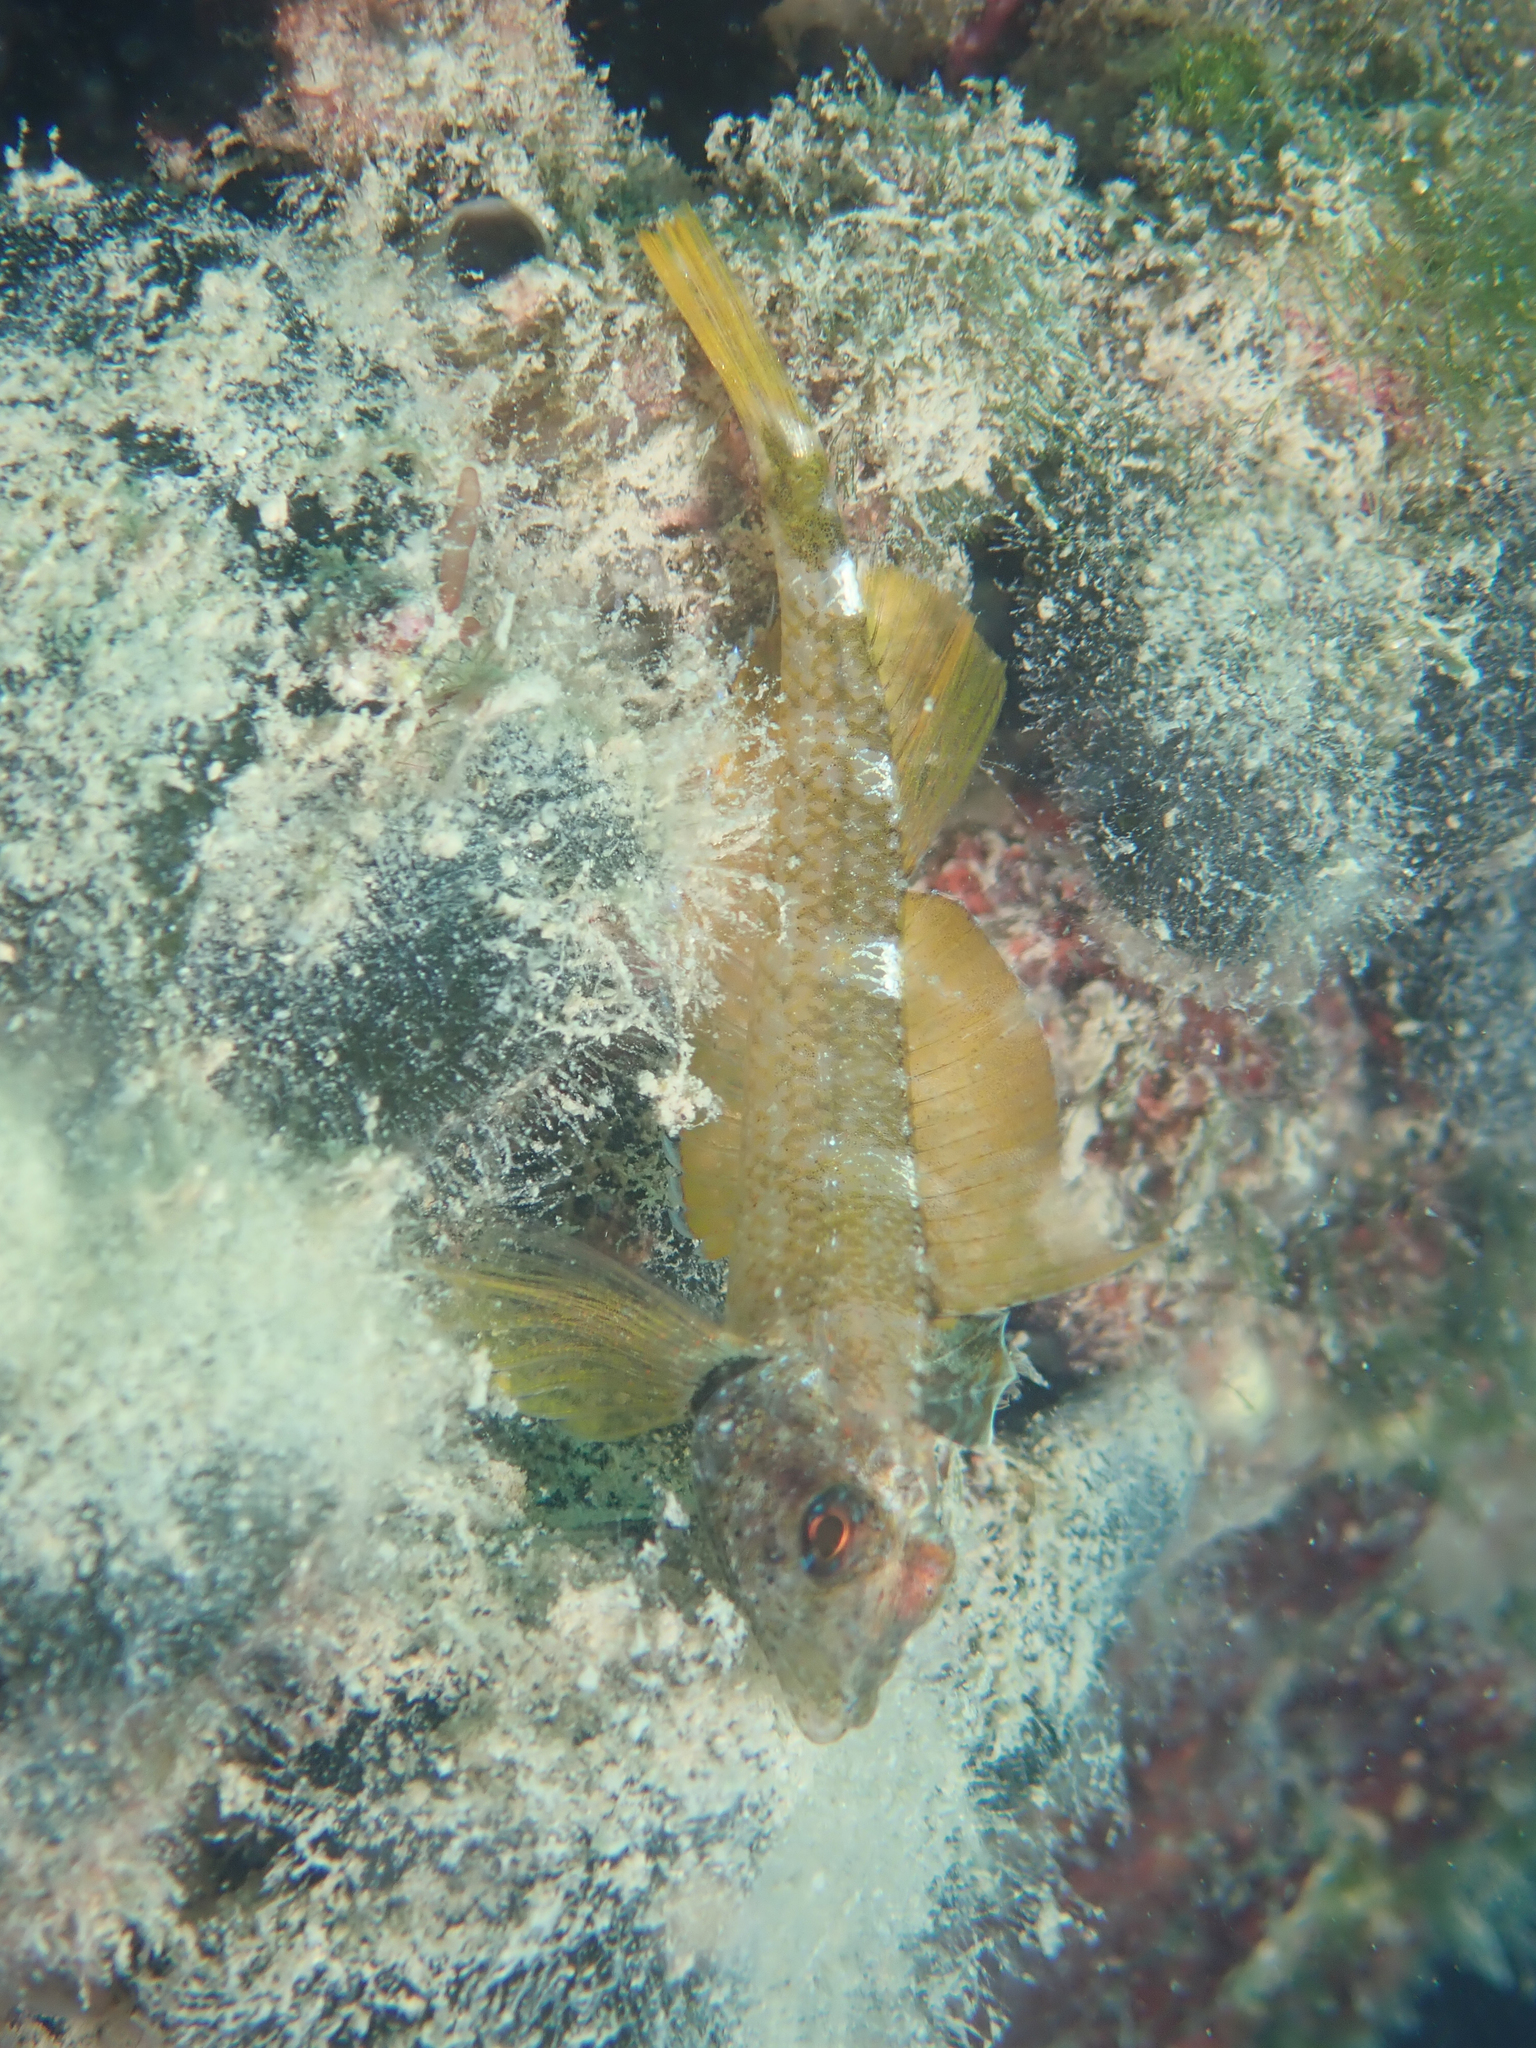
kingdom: Animalia
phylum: Chordata
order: Perciformes
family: Tripterygiidae
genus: Tripterygion
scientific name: Tripterygion delaisi
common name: Black-face blenny
